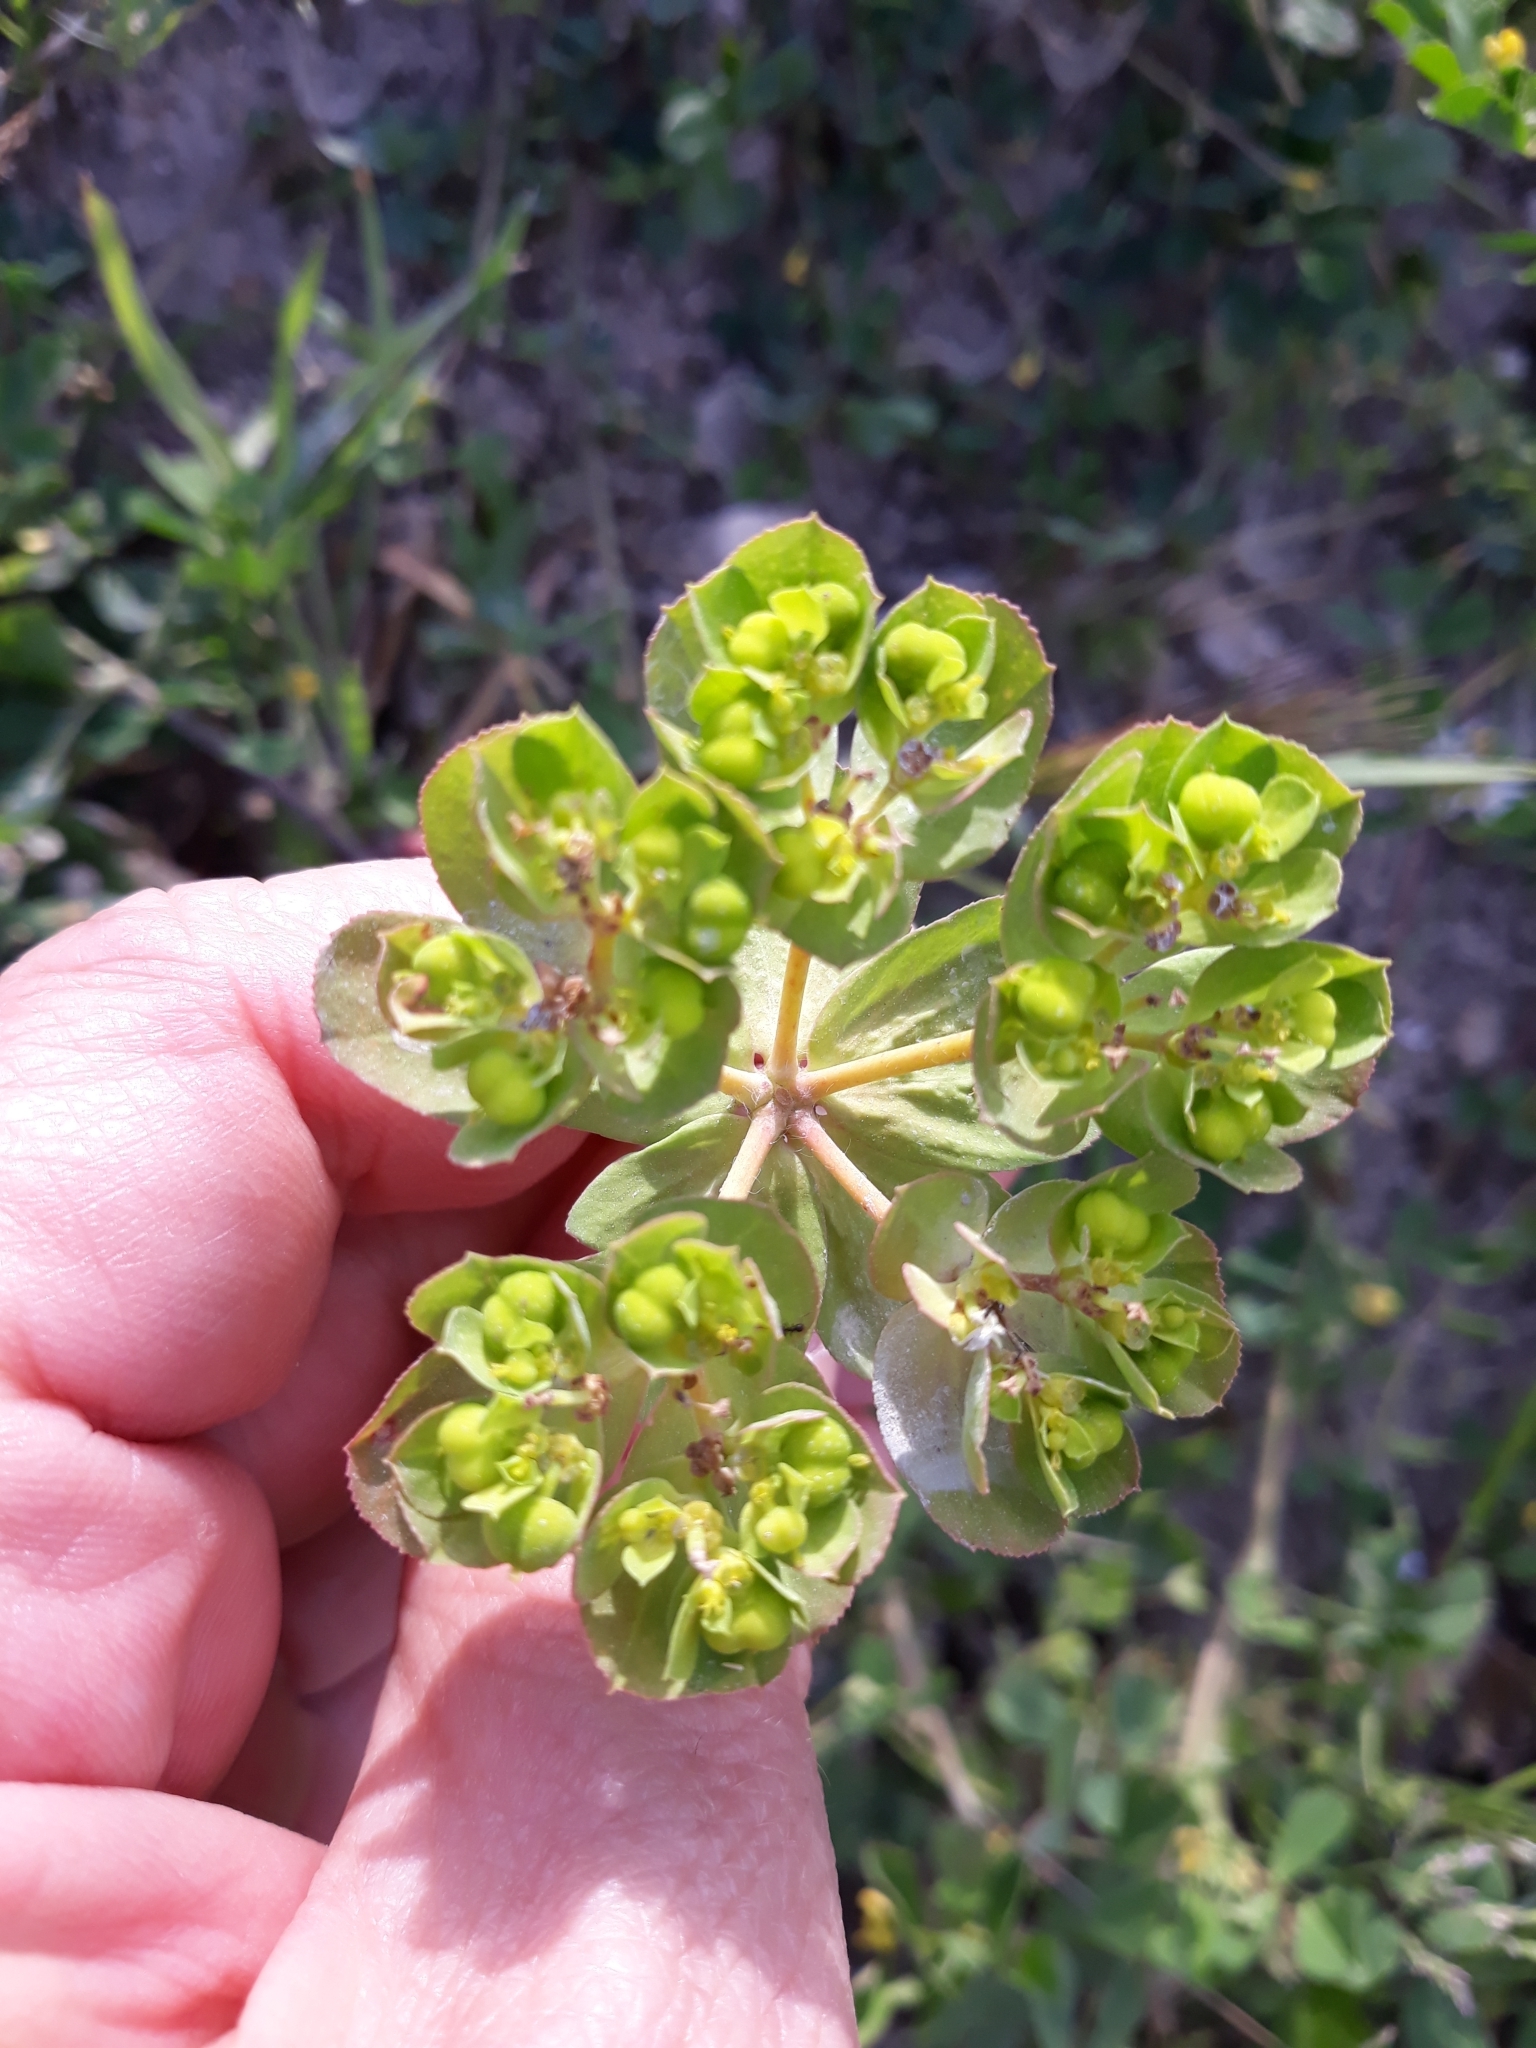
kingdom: Plantae
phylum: Tracheophyta
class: Magnoliopsida
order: Malpighiales
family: Euphorbiaceae
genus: Euphorbia
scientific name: Euphorbia helioscopia
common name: Sun spurge
